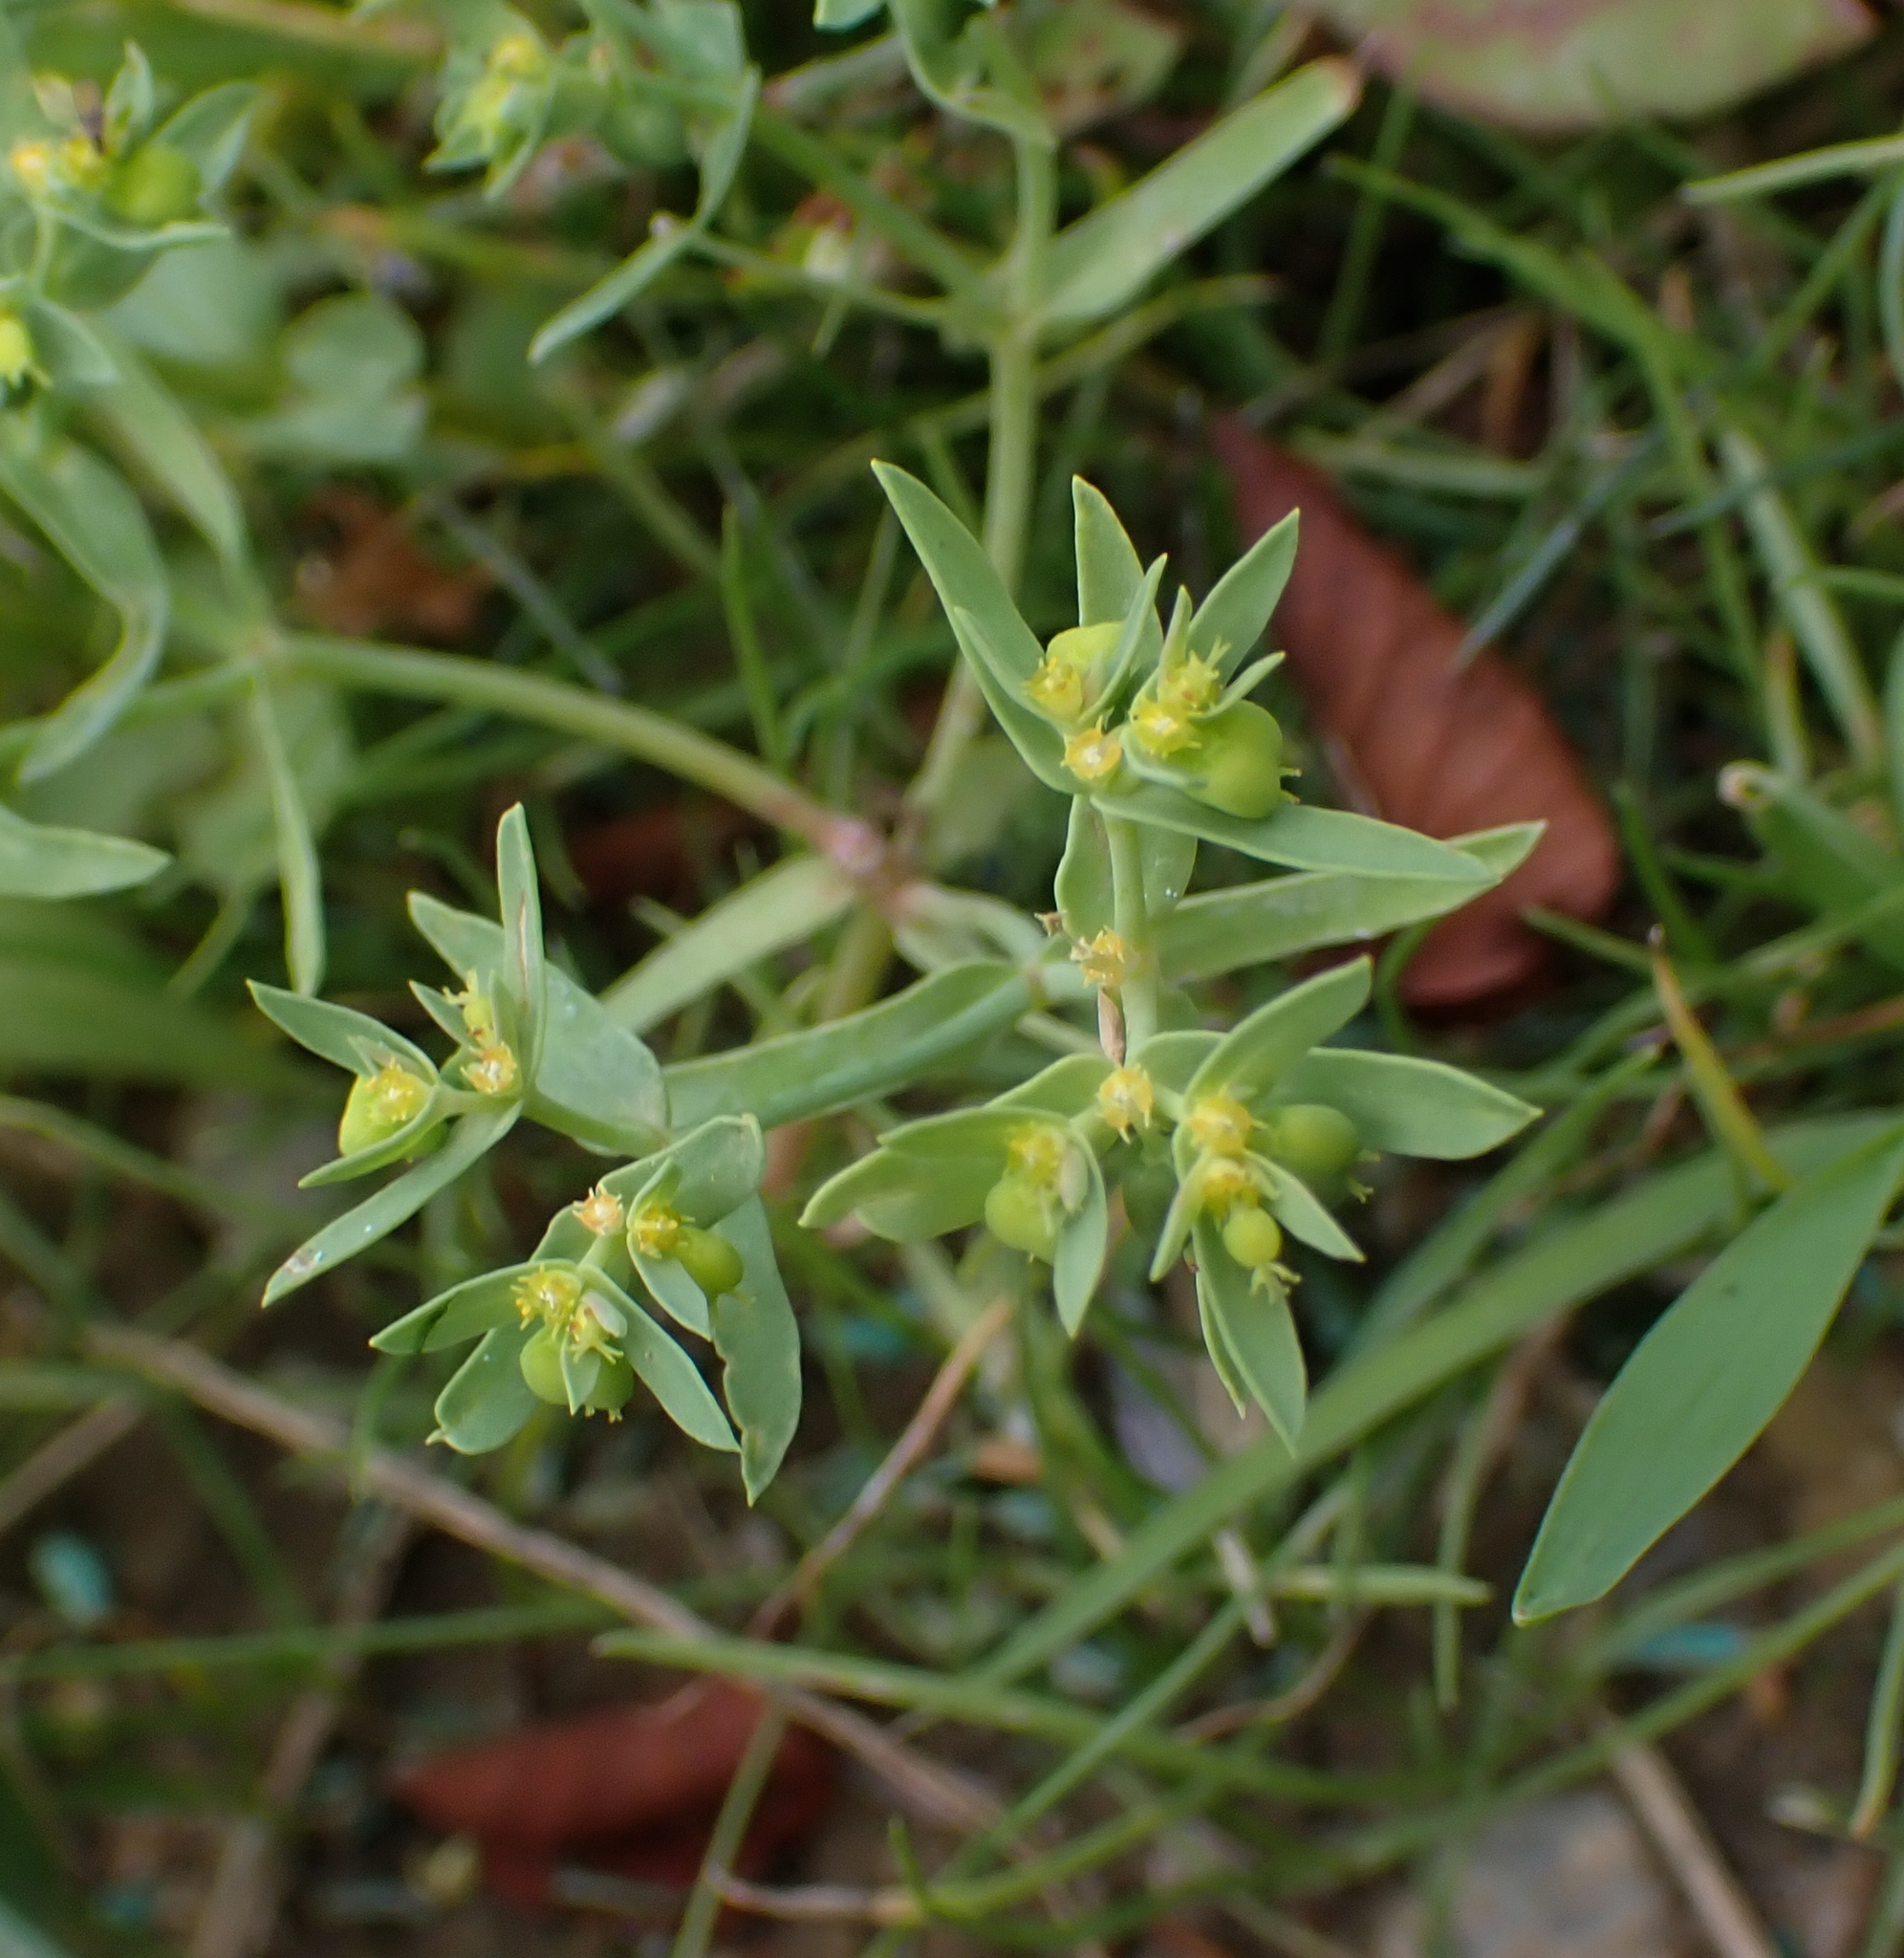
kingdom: Plantae
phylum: Tracheophyta
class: Magnoliopsida
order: Malpighiales
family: Euphorbiaceae
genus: Euphorbia
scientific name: Euphorbia exigua
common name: Dwarf spurge
